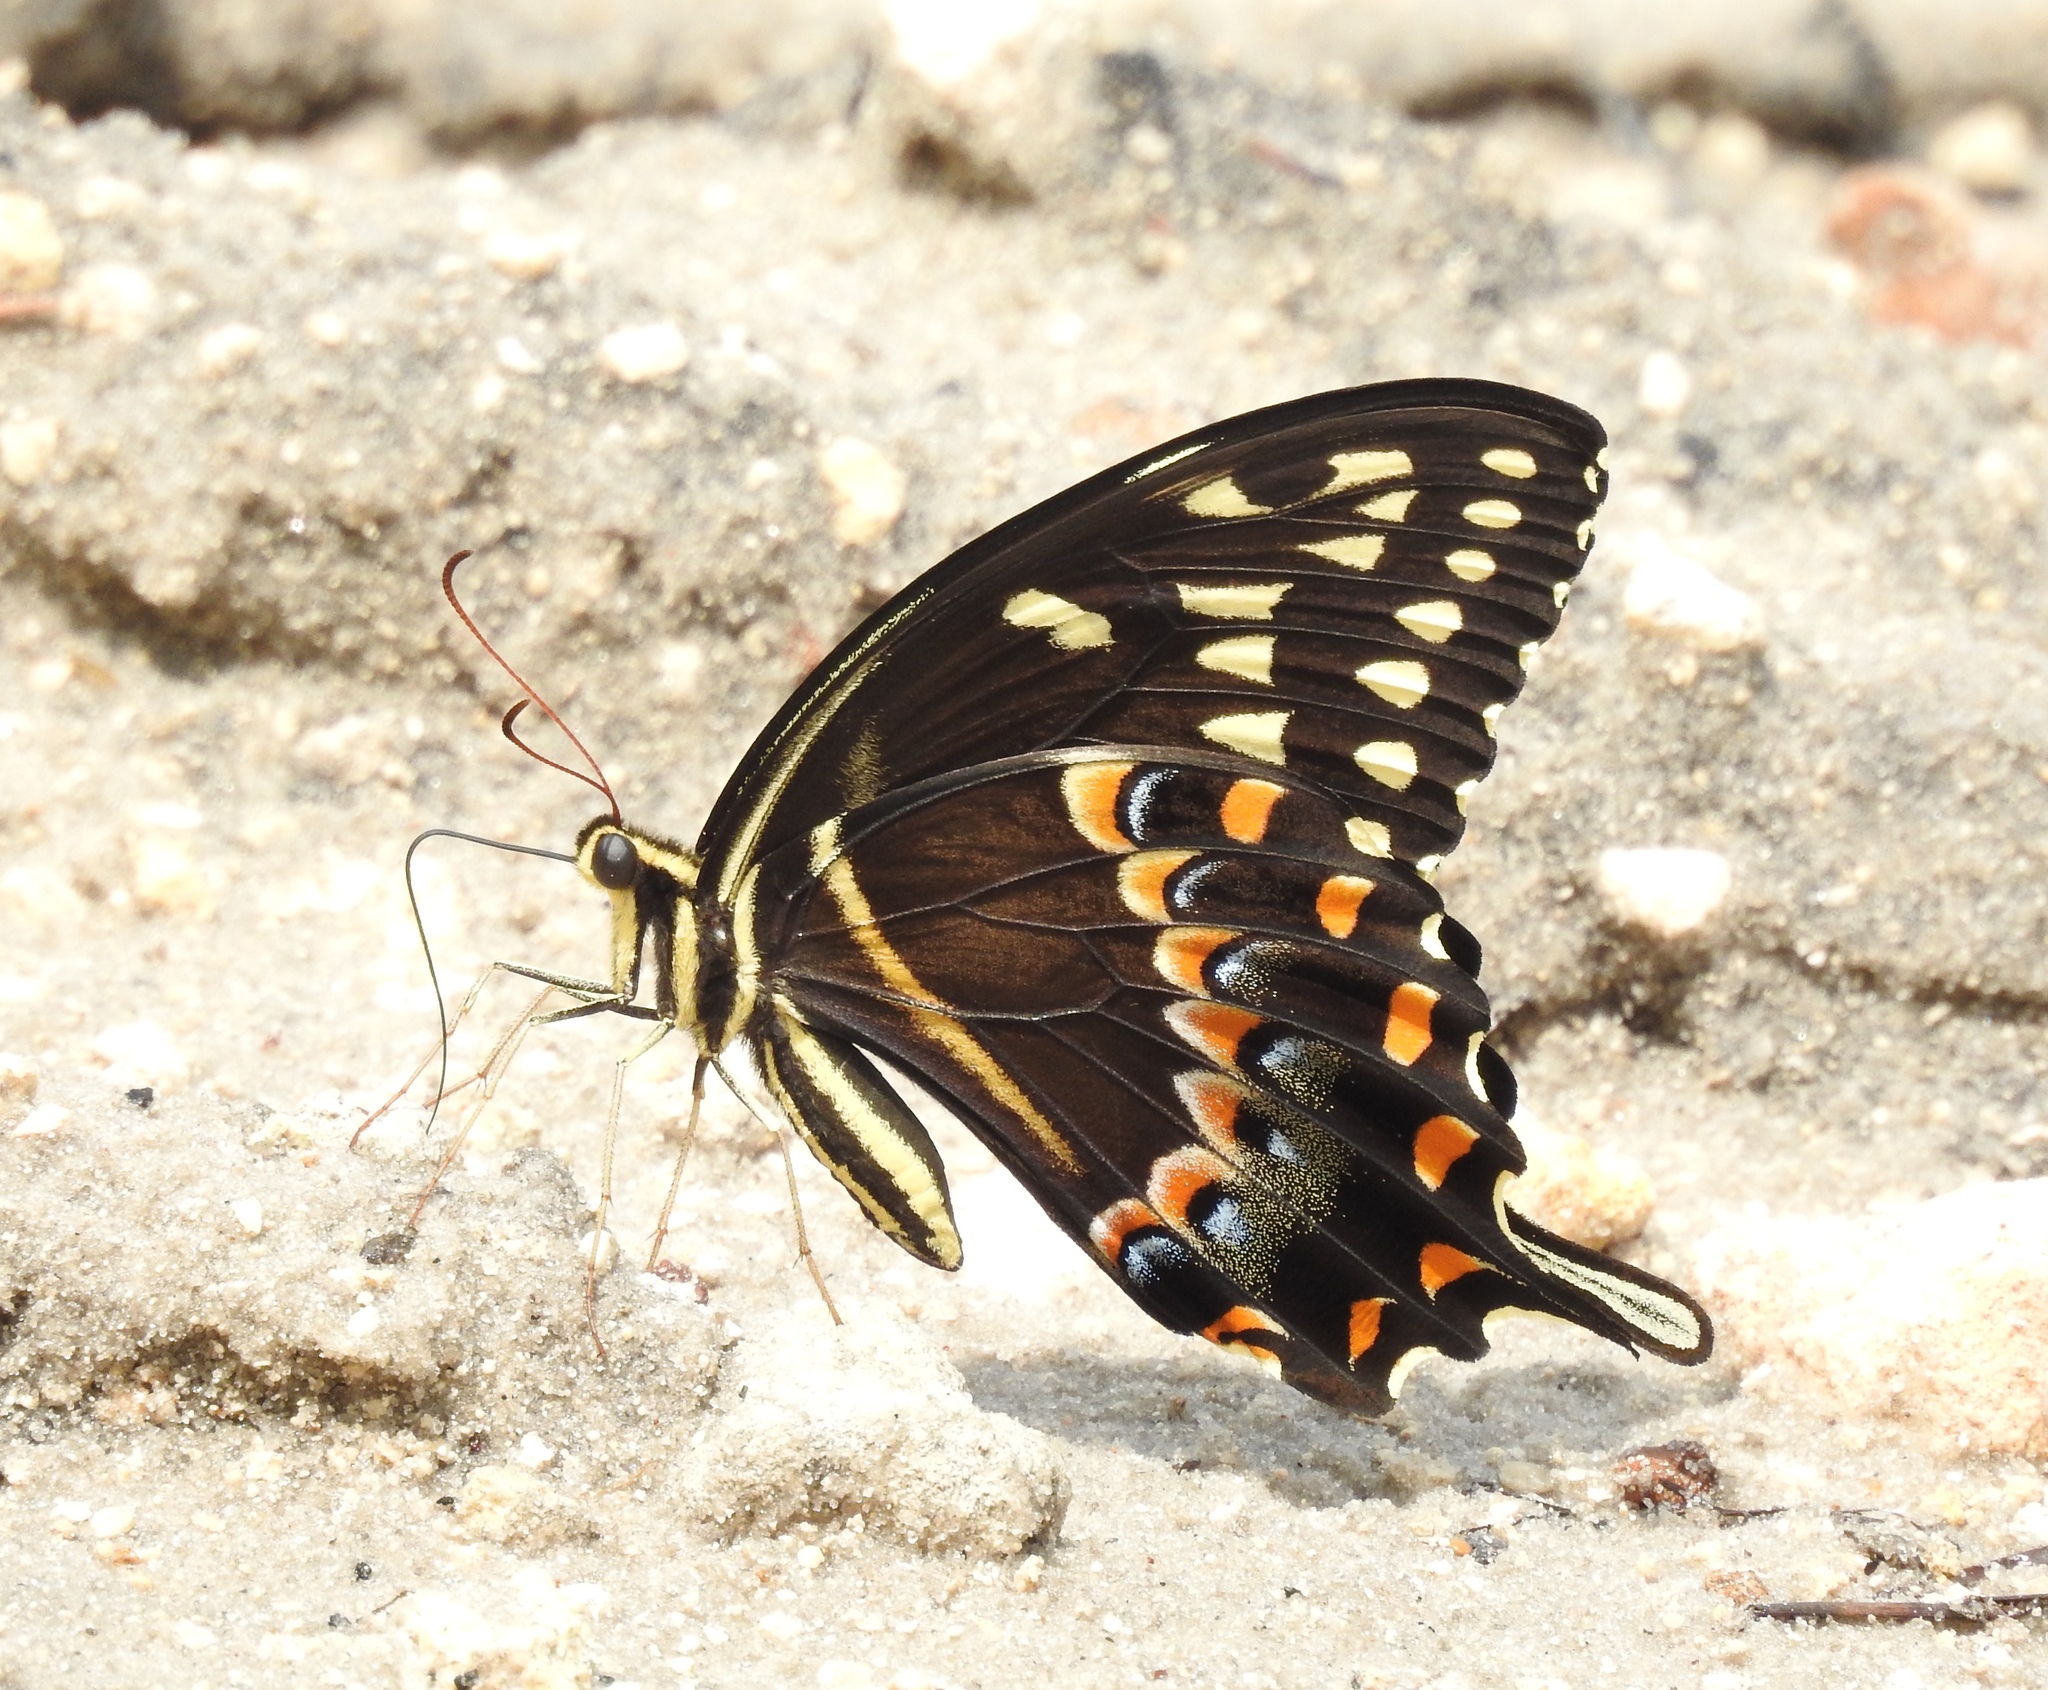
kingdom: Animalia
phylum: Arthropoda
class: Insecta
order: Lepidoptera
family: Papilionidae
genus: Papilio
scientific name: Papilio palamedes
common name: Palamedes swallowtail
